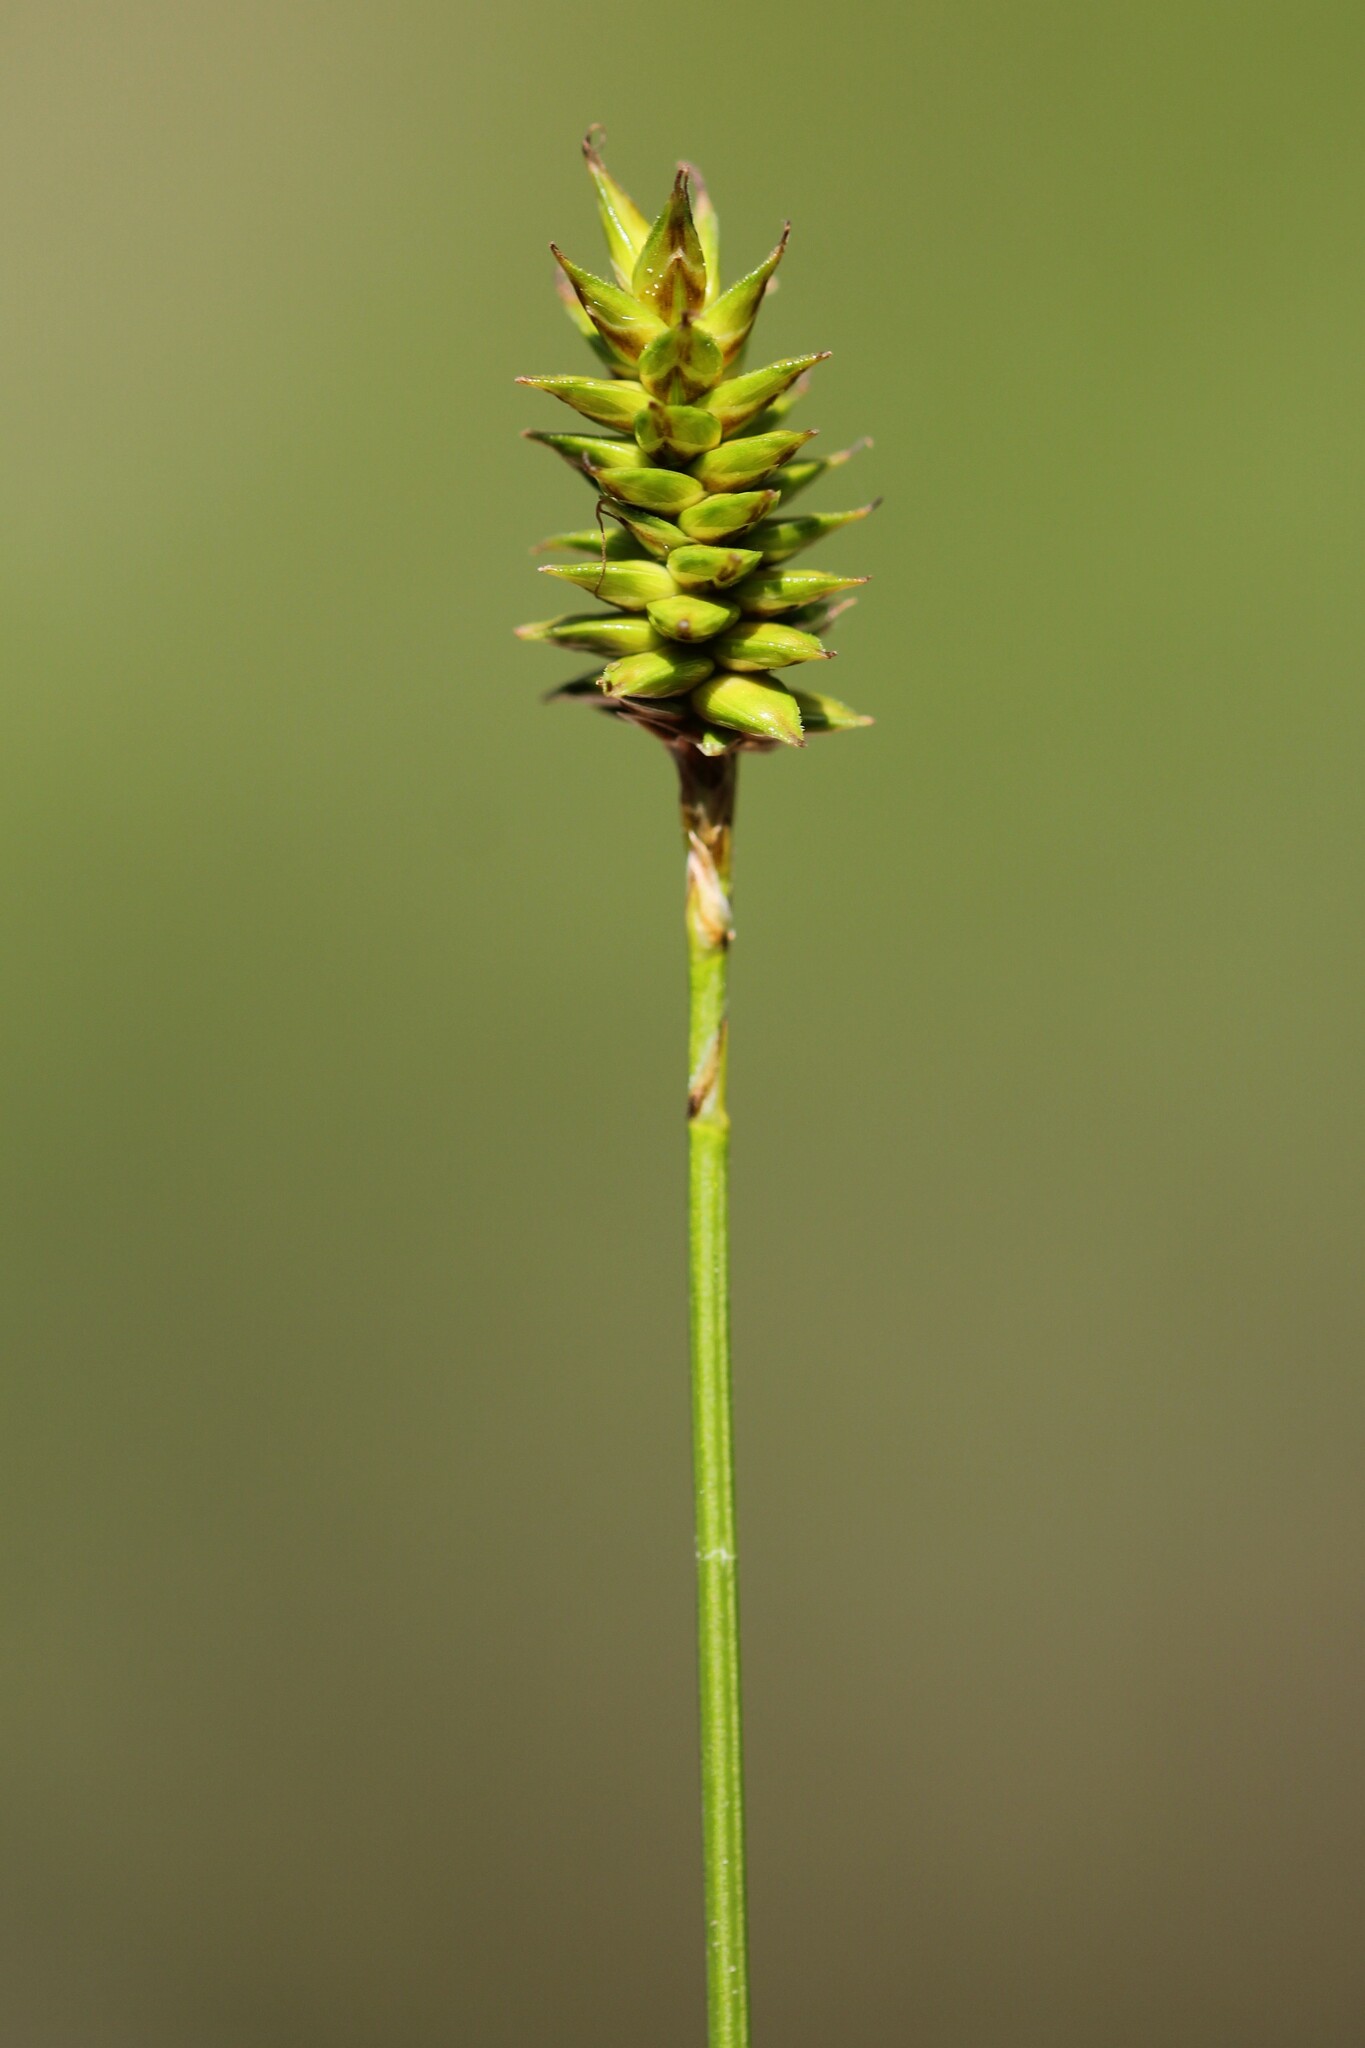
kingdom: Plantae
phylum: Tracheophyta
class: Liliopsida
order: Poales
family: Cyperaceae
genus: Carex
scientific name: Carex exilis
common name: Coastal sedge
